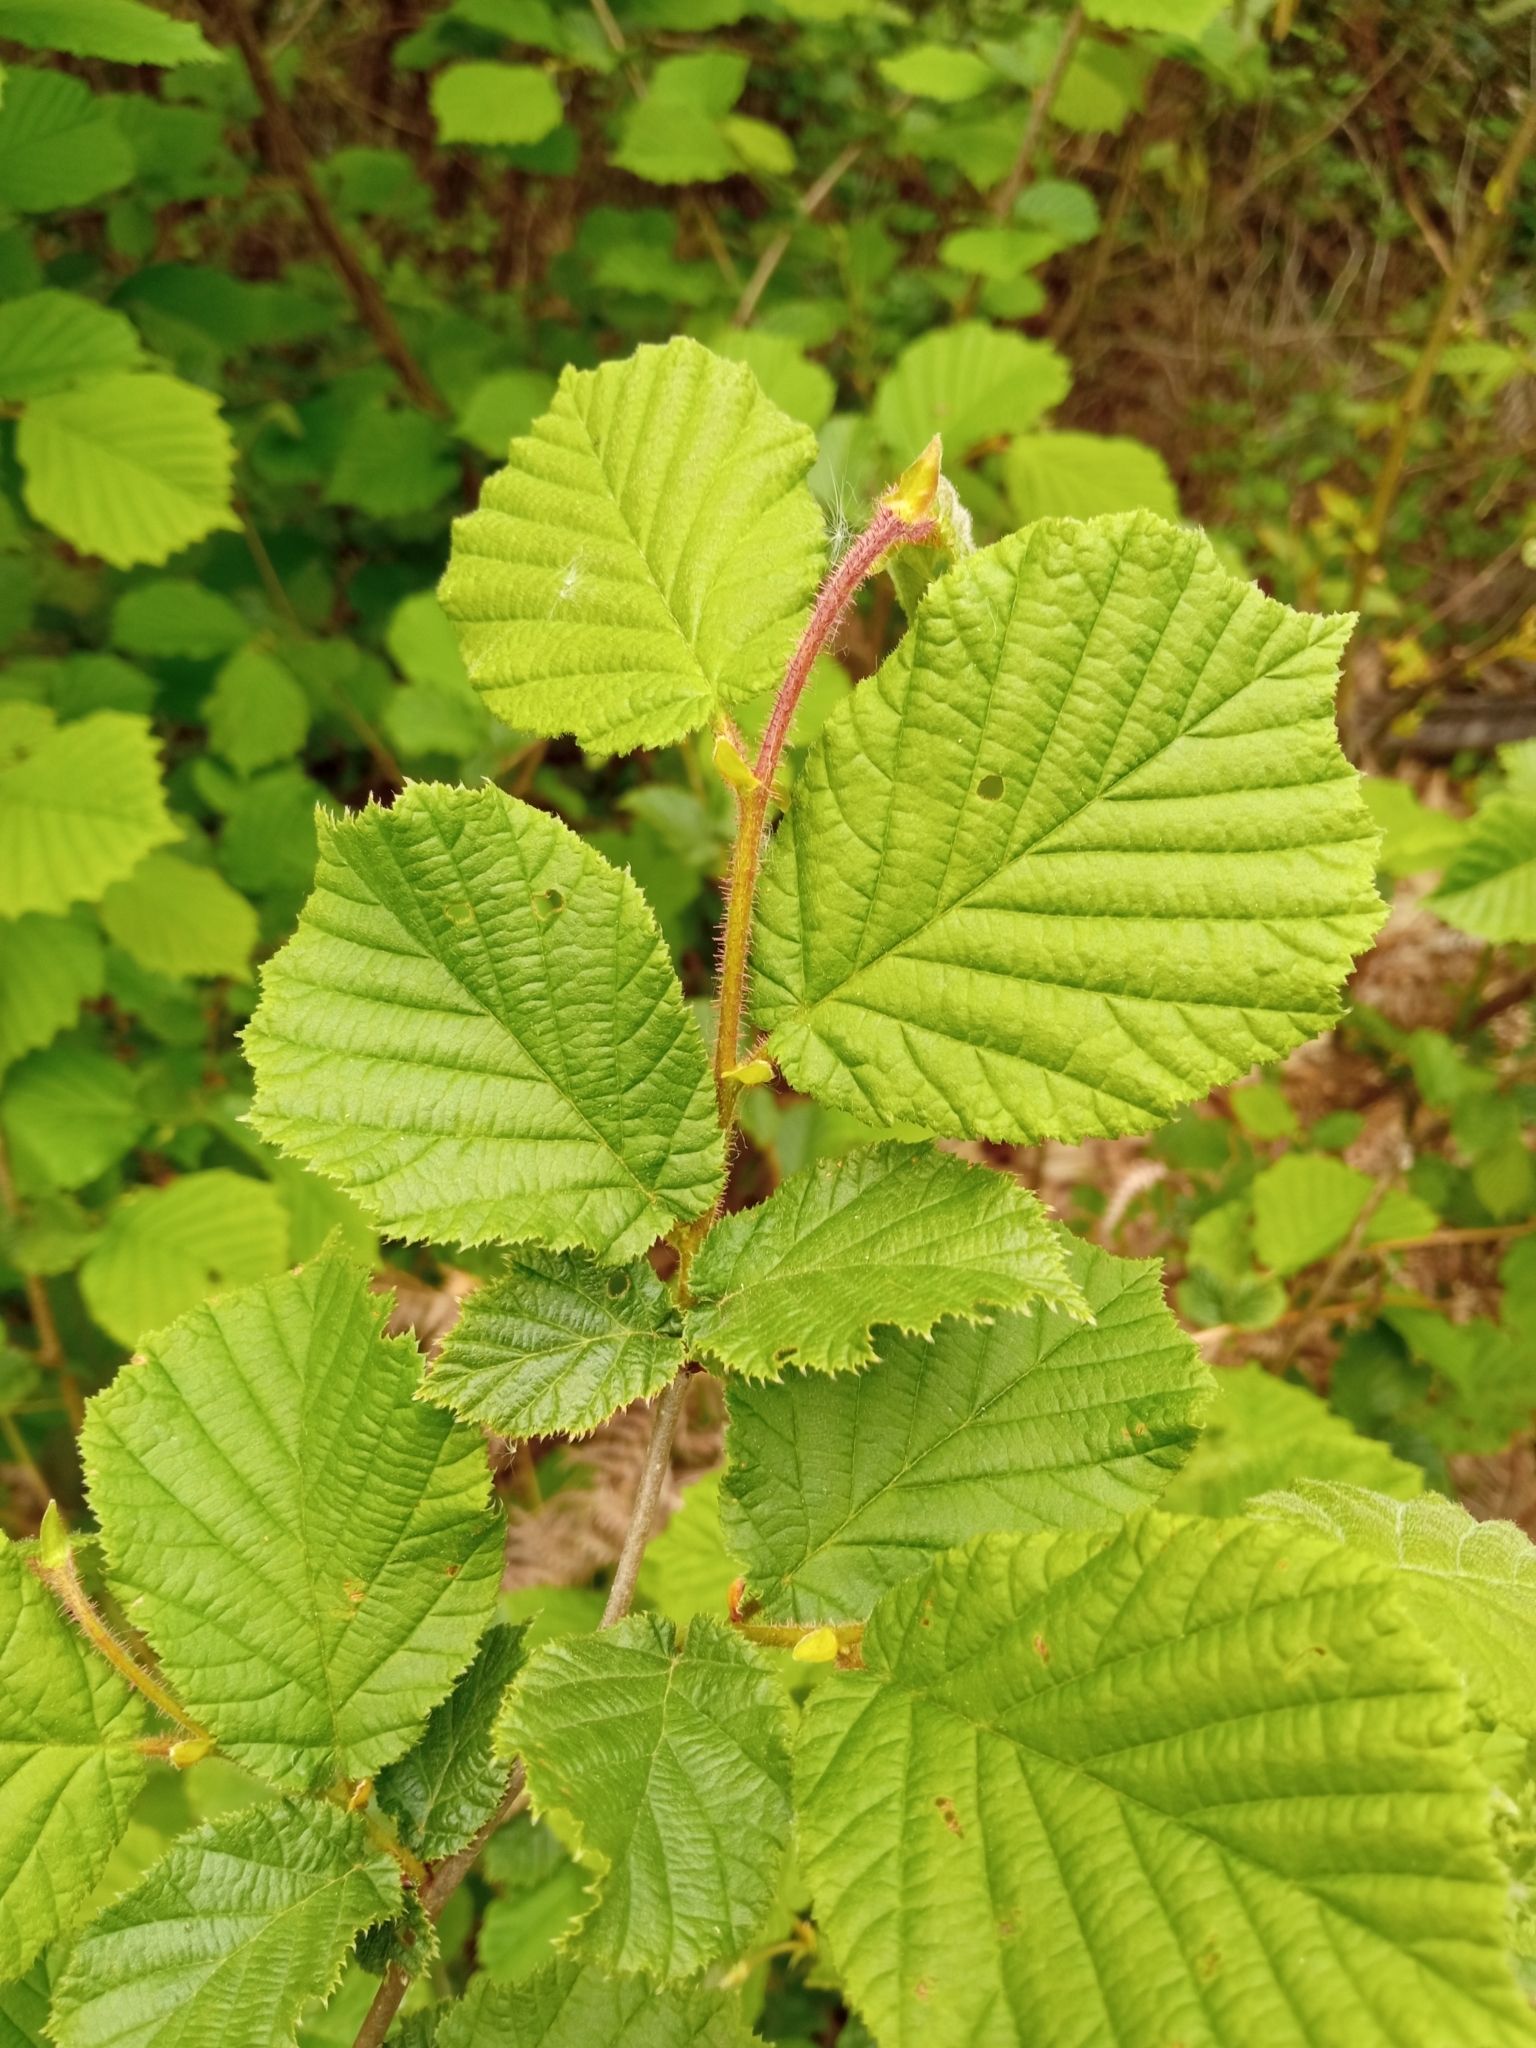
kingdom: Plantae
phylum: Tracheophyta
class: Magnoliopsida
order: Fagales
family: Betulaceae
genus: Corylus
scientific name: Corylus avellana
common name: European hazel
